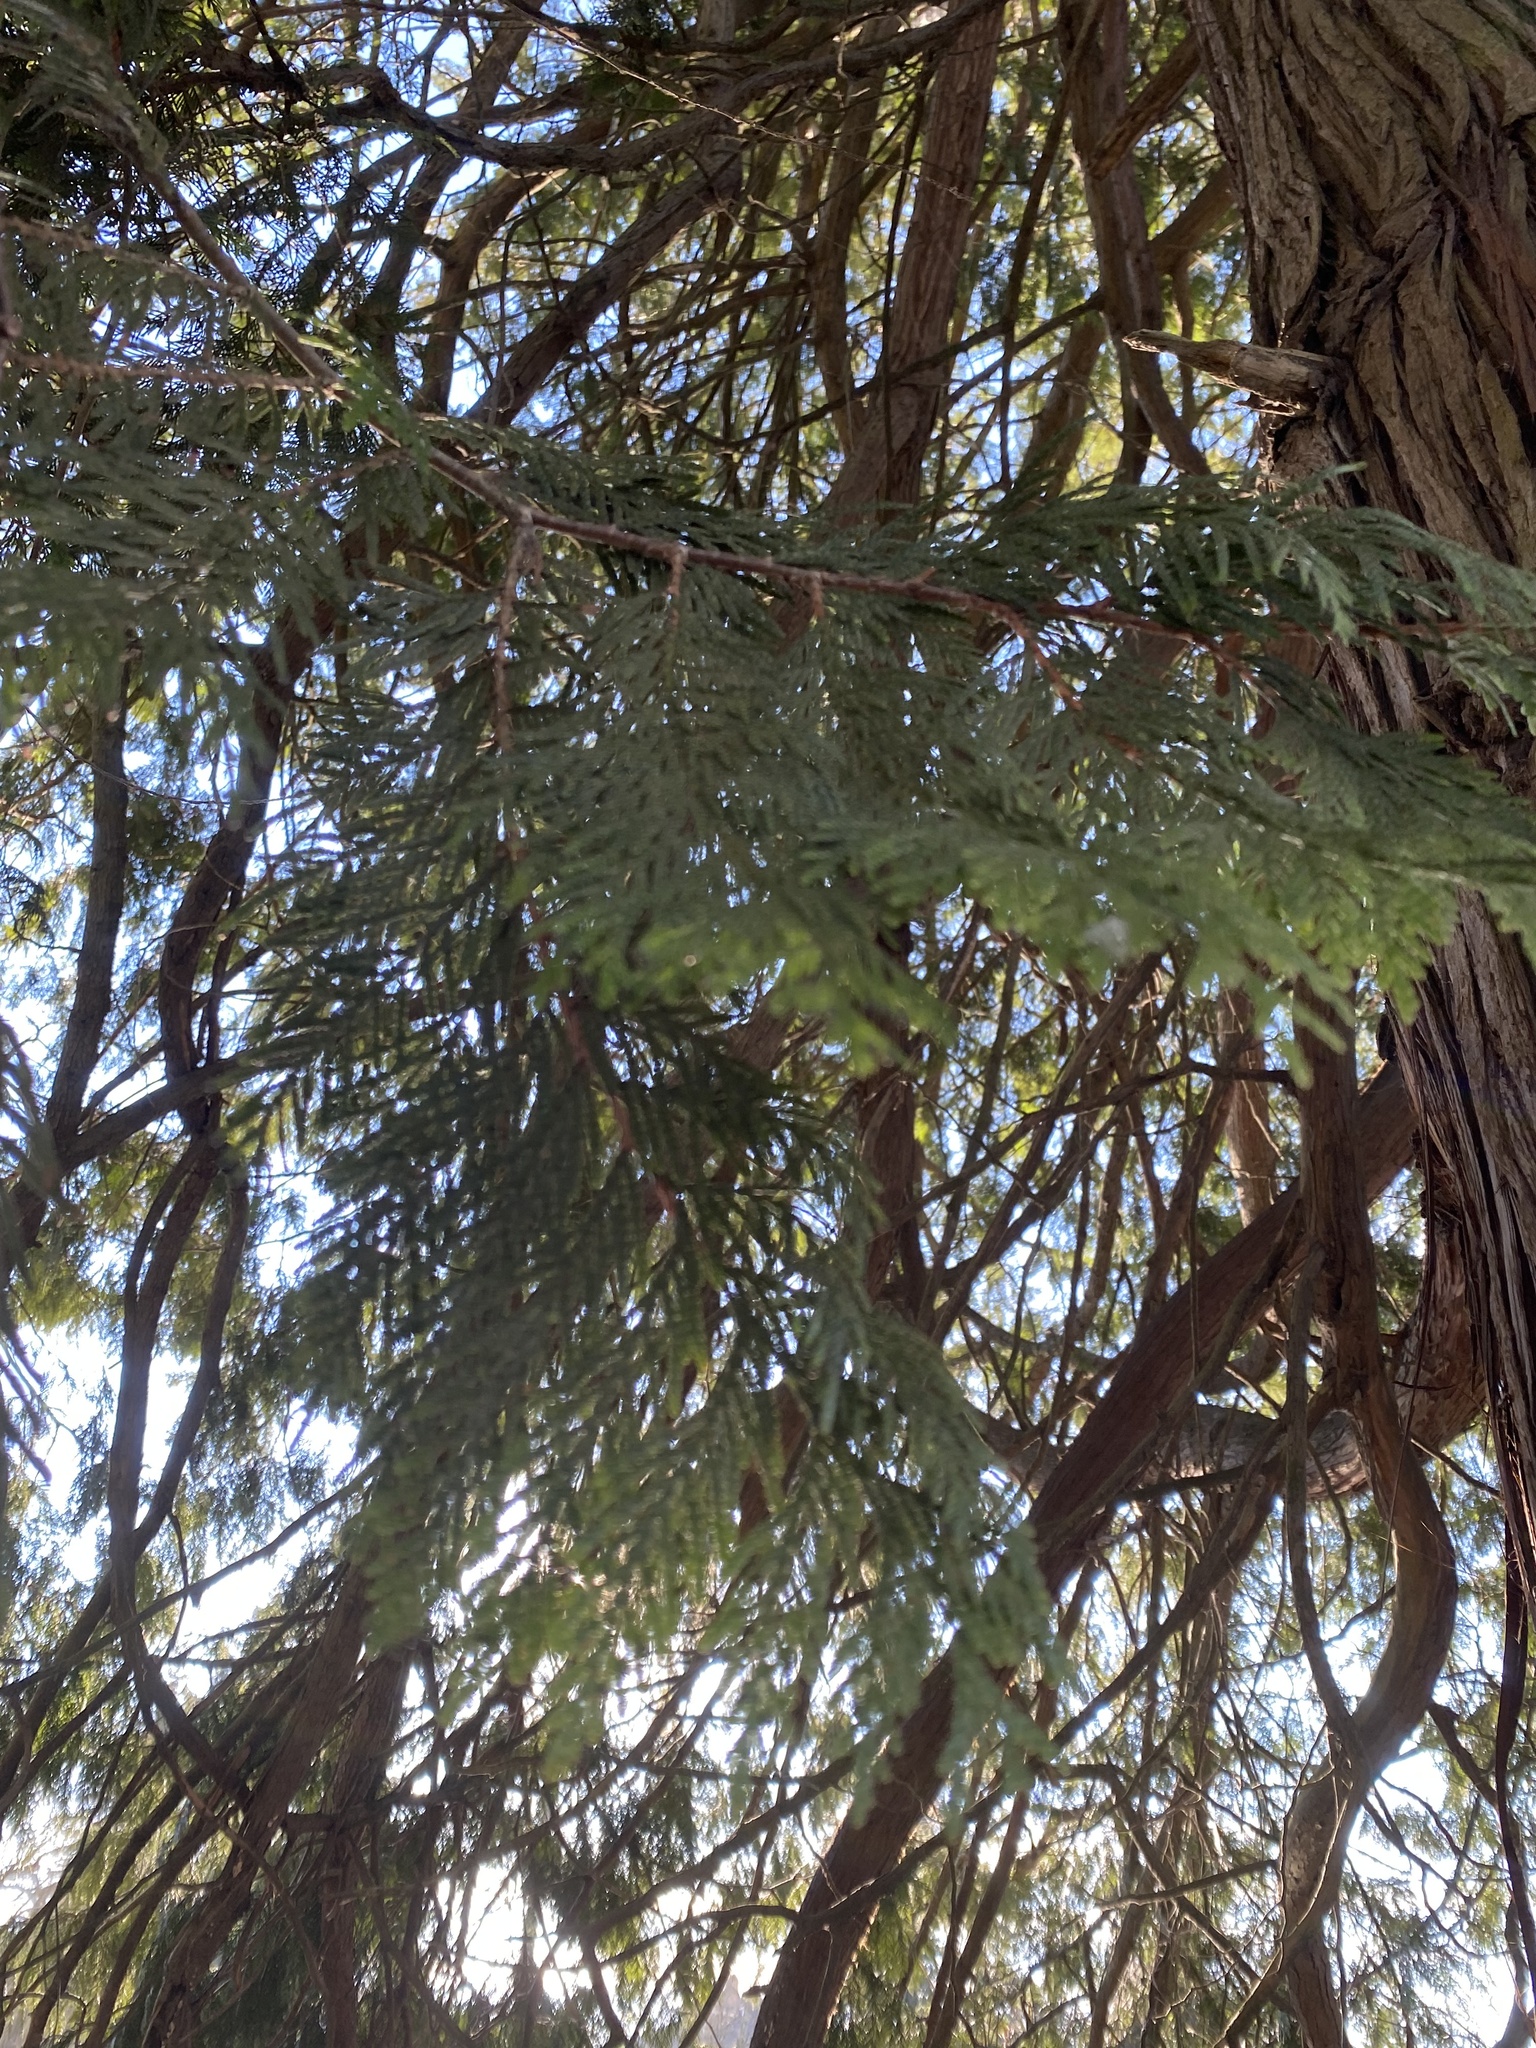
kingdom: Plantae
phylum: Tracheophyta
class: Pinopsida
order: Pinales
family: Cupressaceae
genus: Thuja
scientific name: Thuja plicata
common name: Western red-cedar
